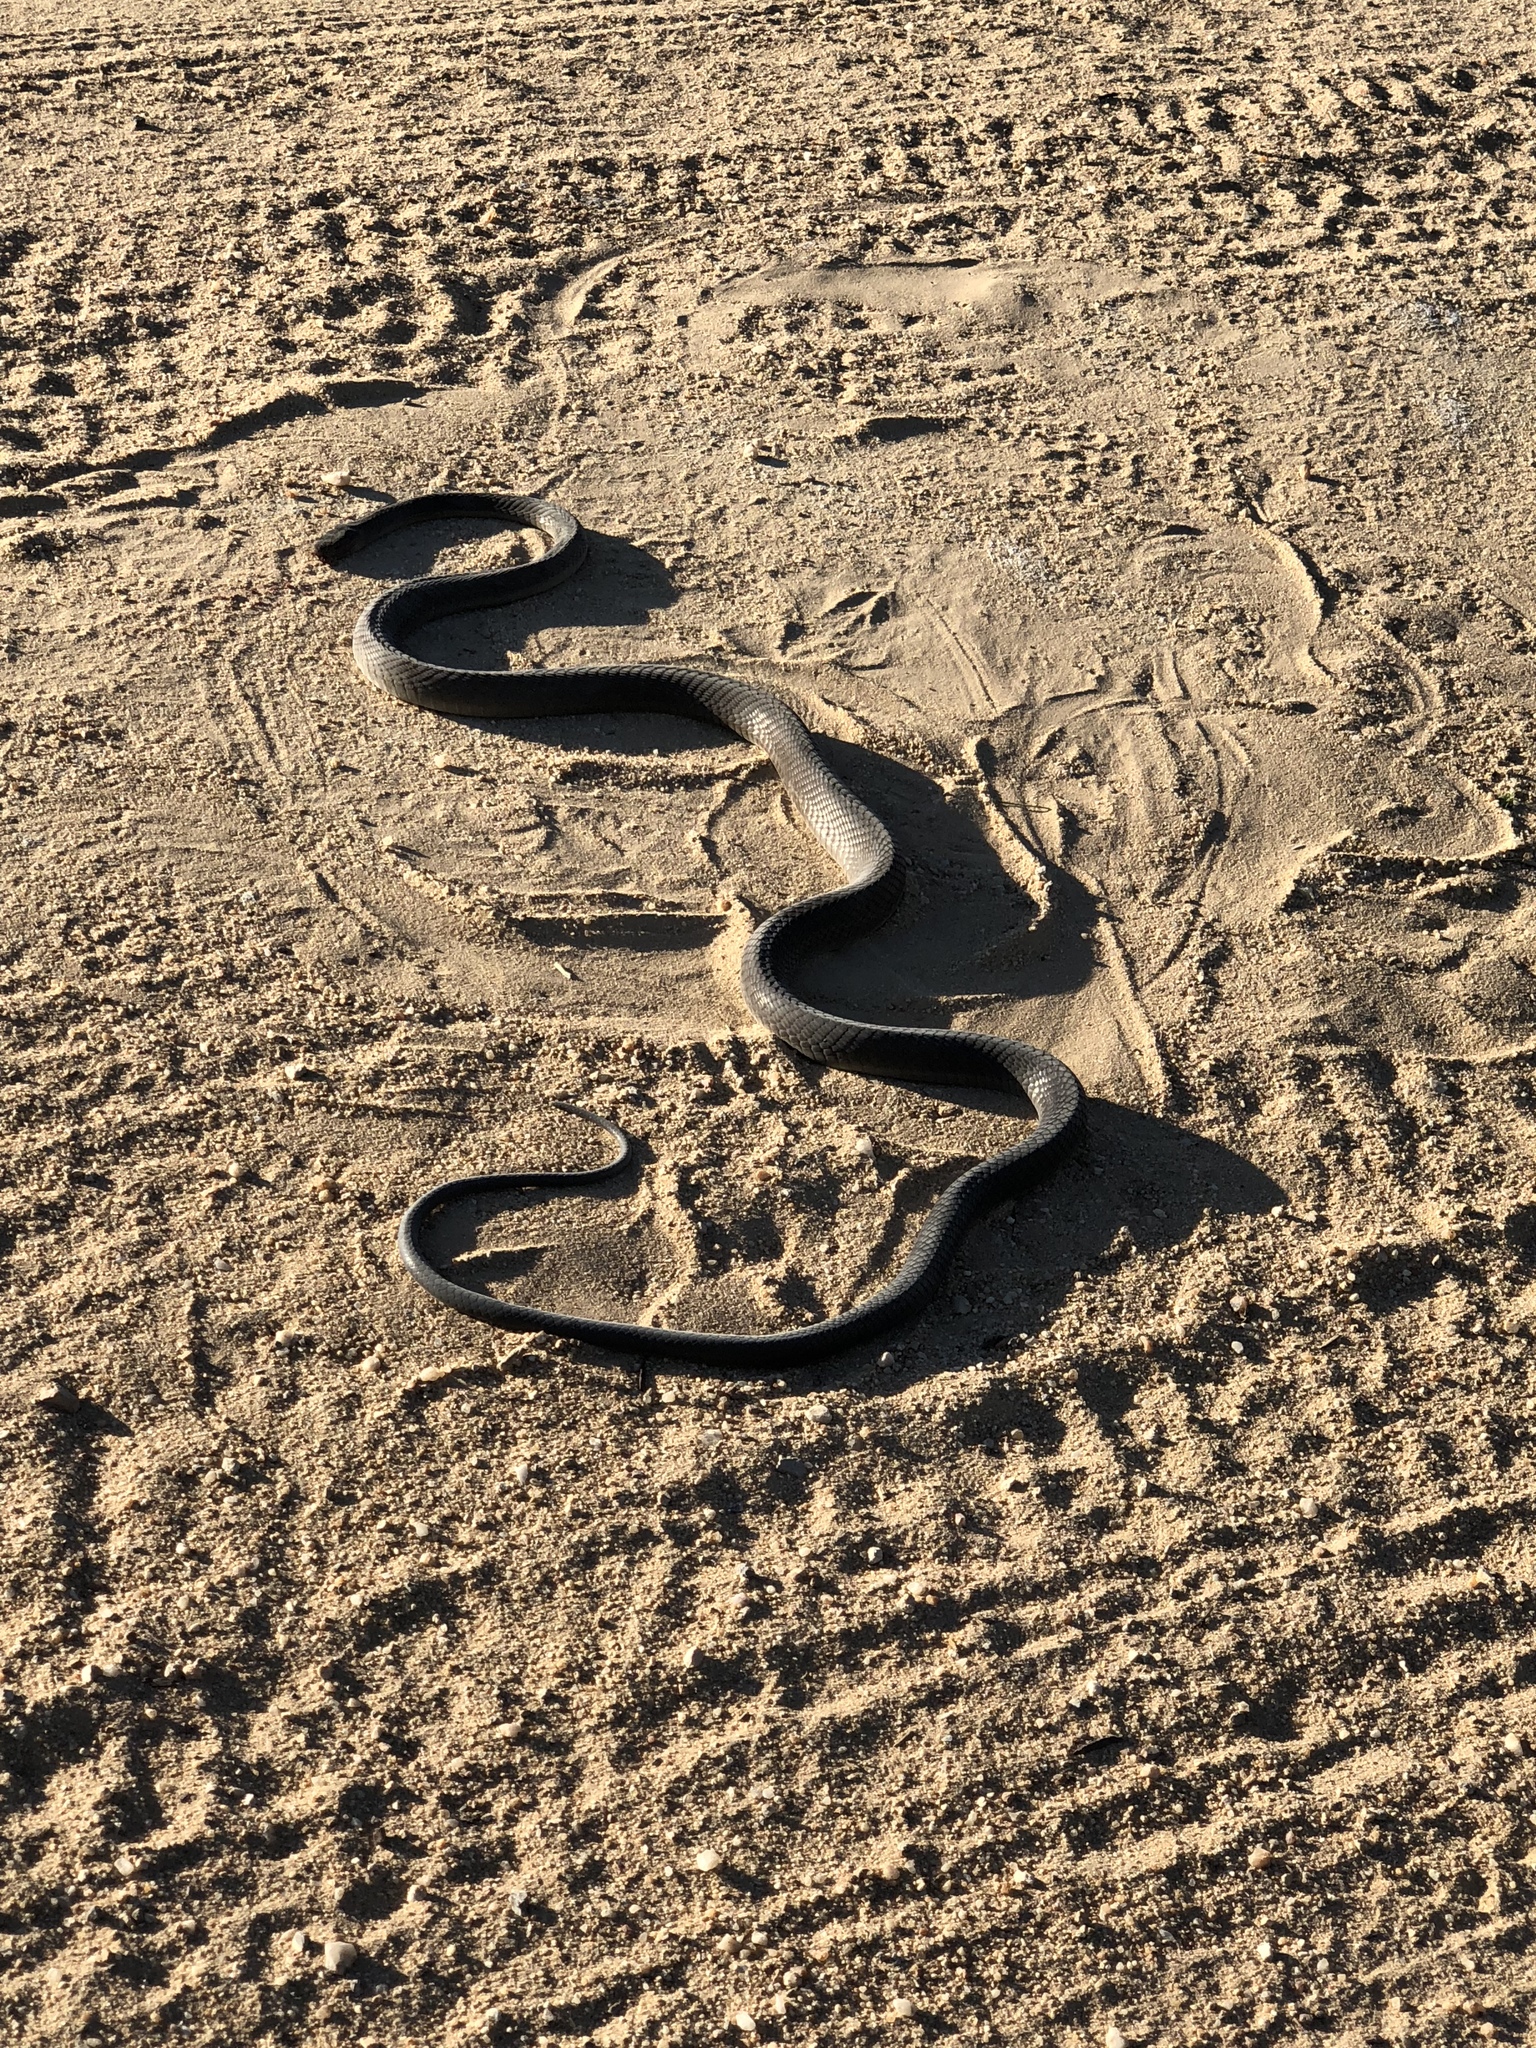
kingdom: Animalia
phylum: Chordata
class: Squamata
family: Elapidae
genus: Dendroaspis
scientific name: Dendroaspis polylepis
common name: Black mamba
